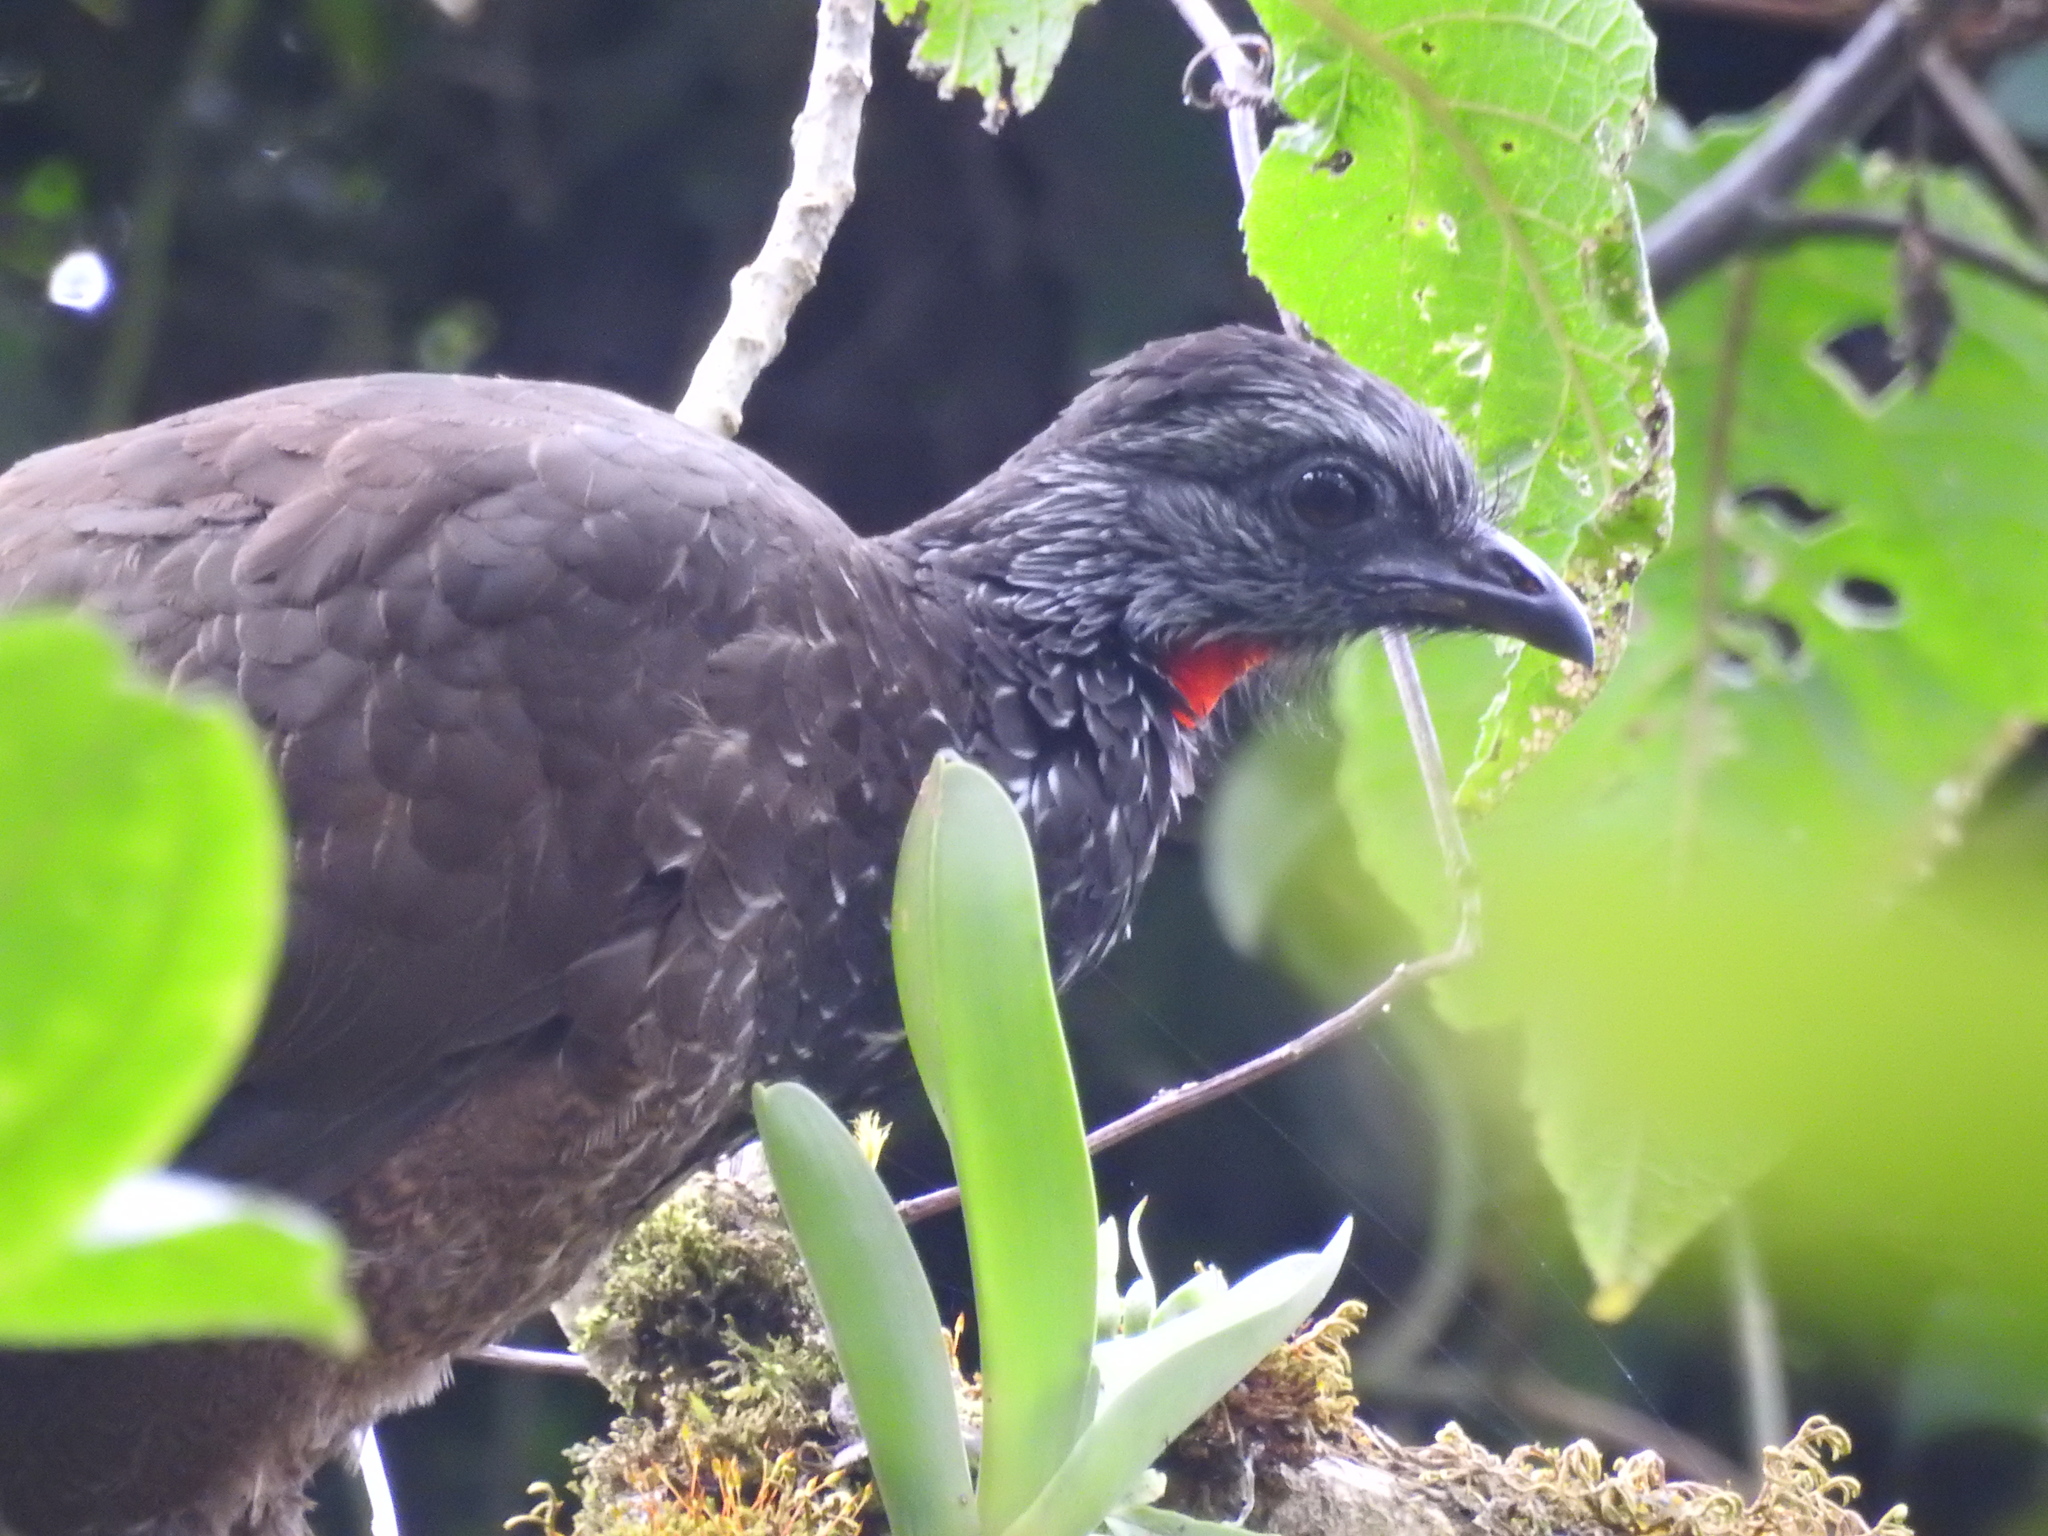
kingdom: Animalia
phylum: Chordata
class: Aves
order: Galliformes
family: Cracidae
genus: Penelope
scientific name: Penelope barbata
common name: Bearded guan
